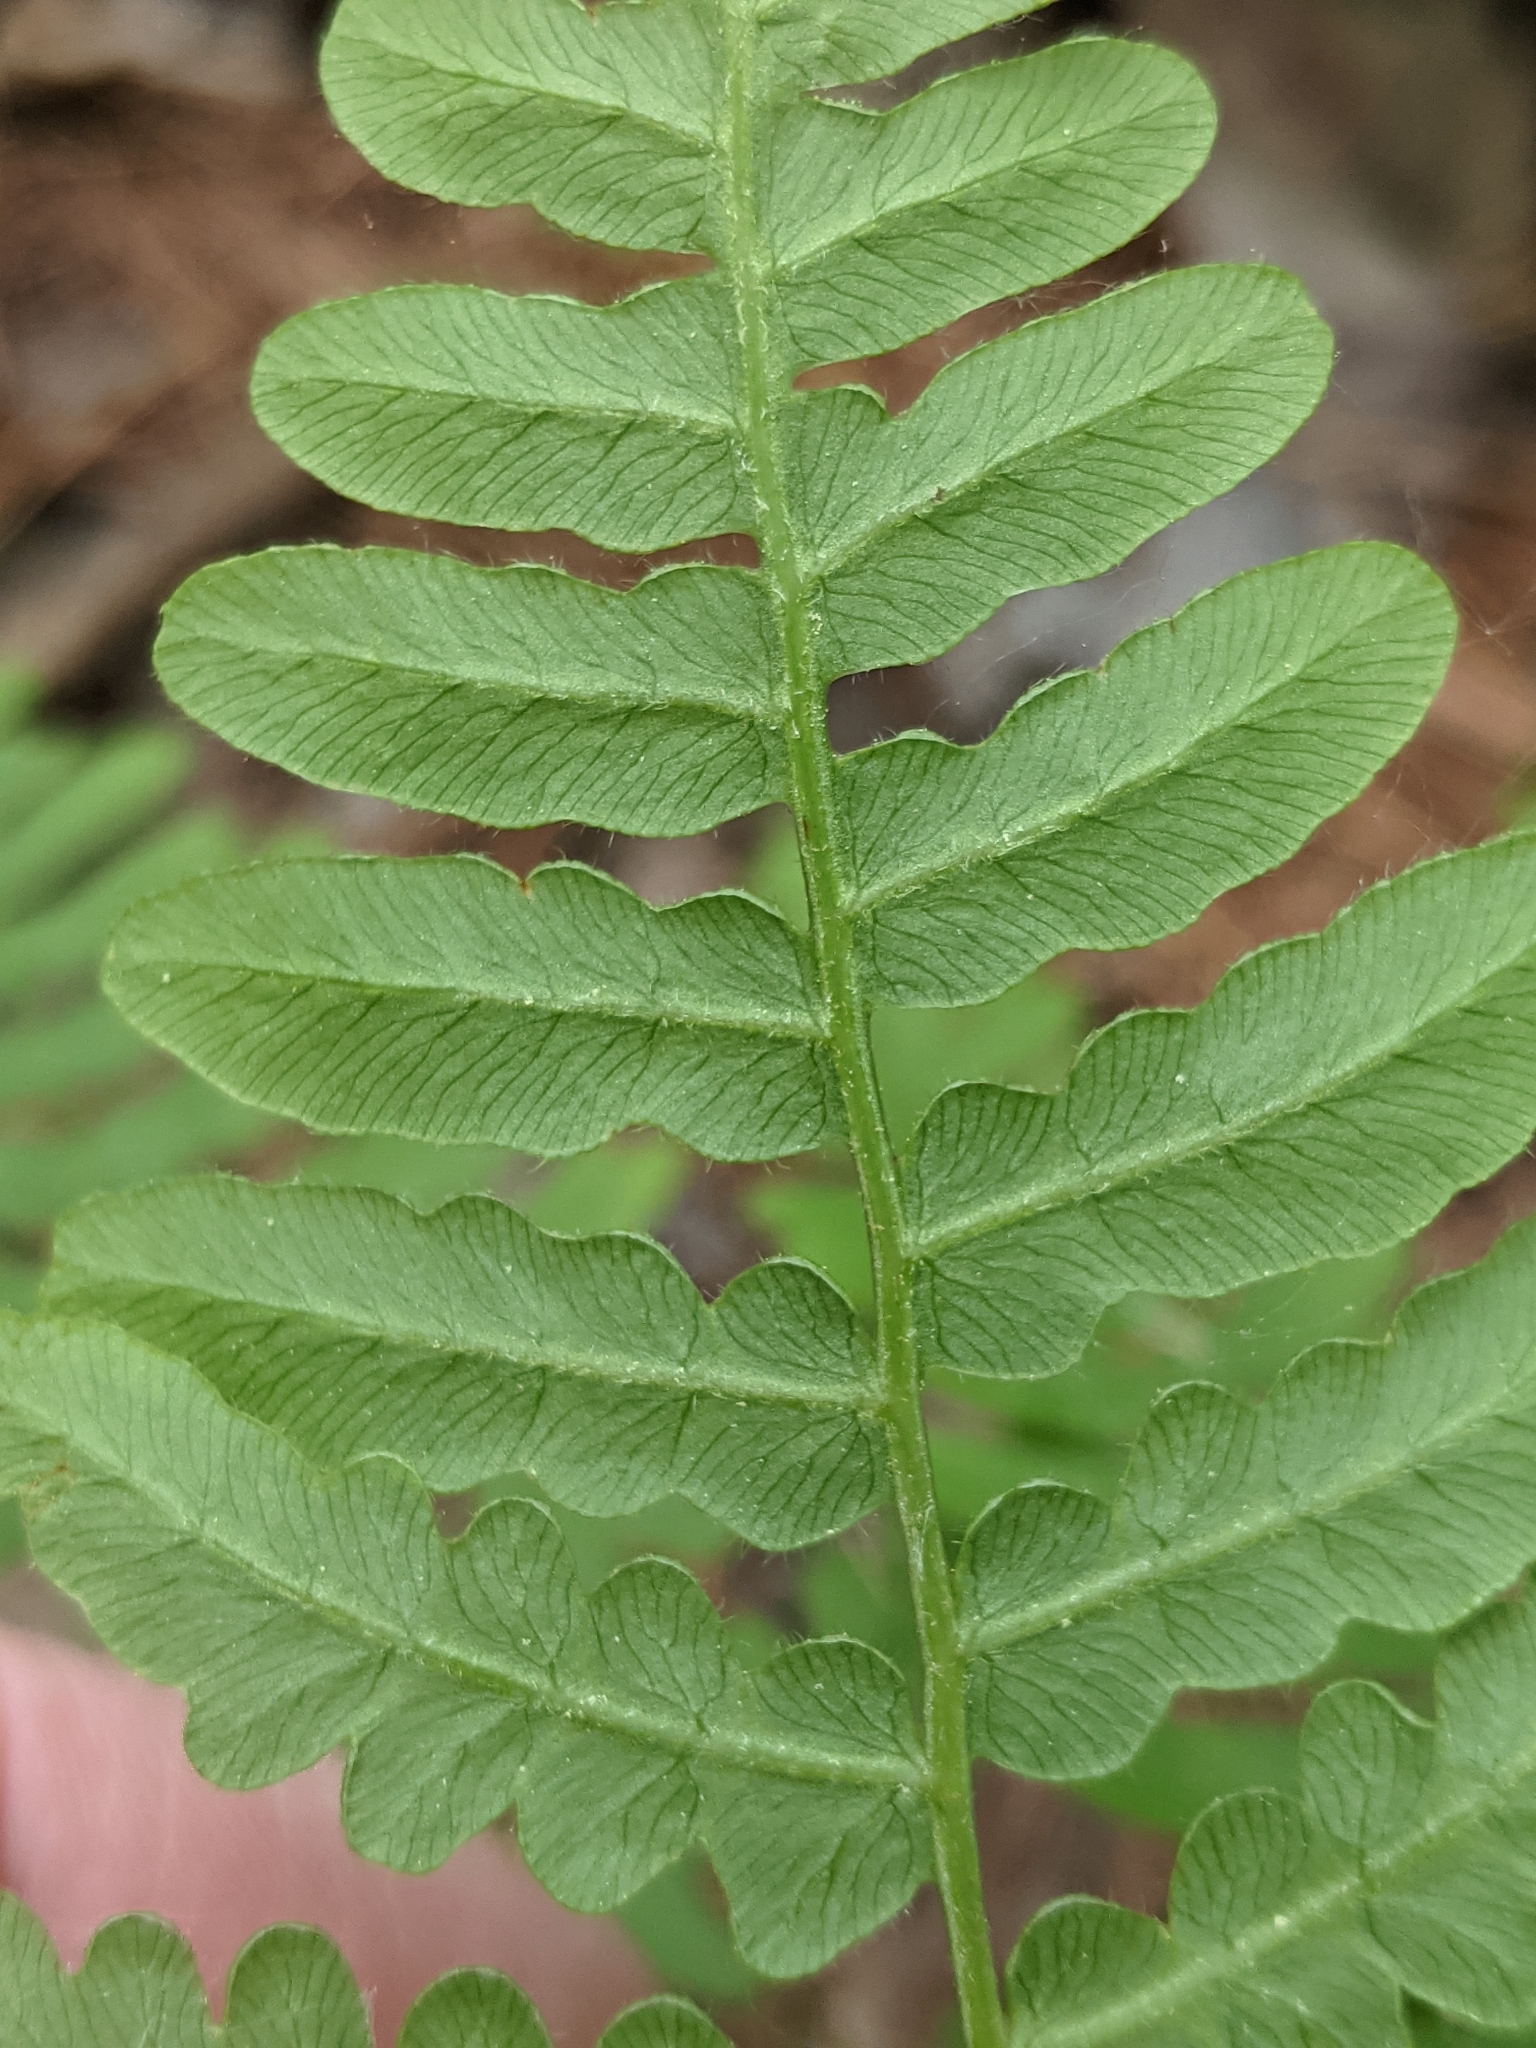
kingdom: Plantae
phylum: Tracheophyta
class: Polypodiopsida
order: Polypodiales
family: Dennstaedtiaceae
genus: Pteridium
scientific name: Pteridium aquilinum
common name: Bracken
